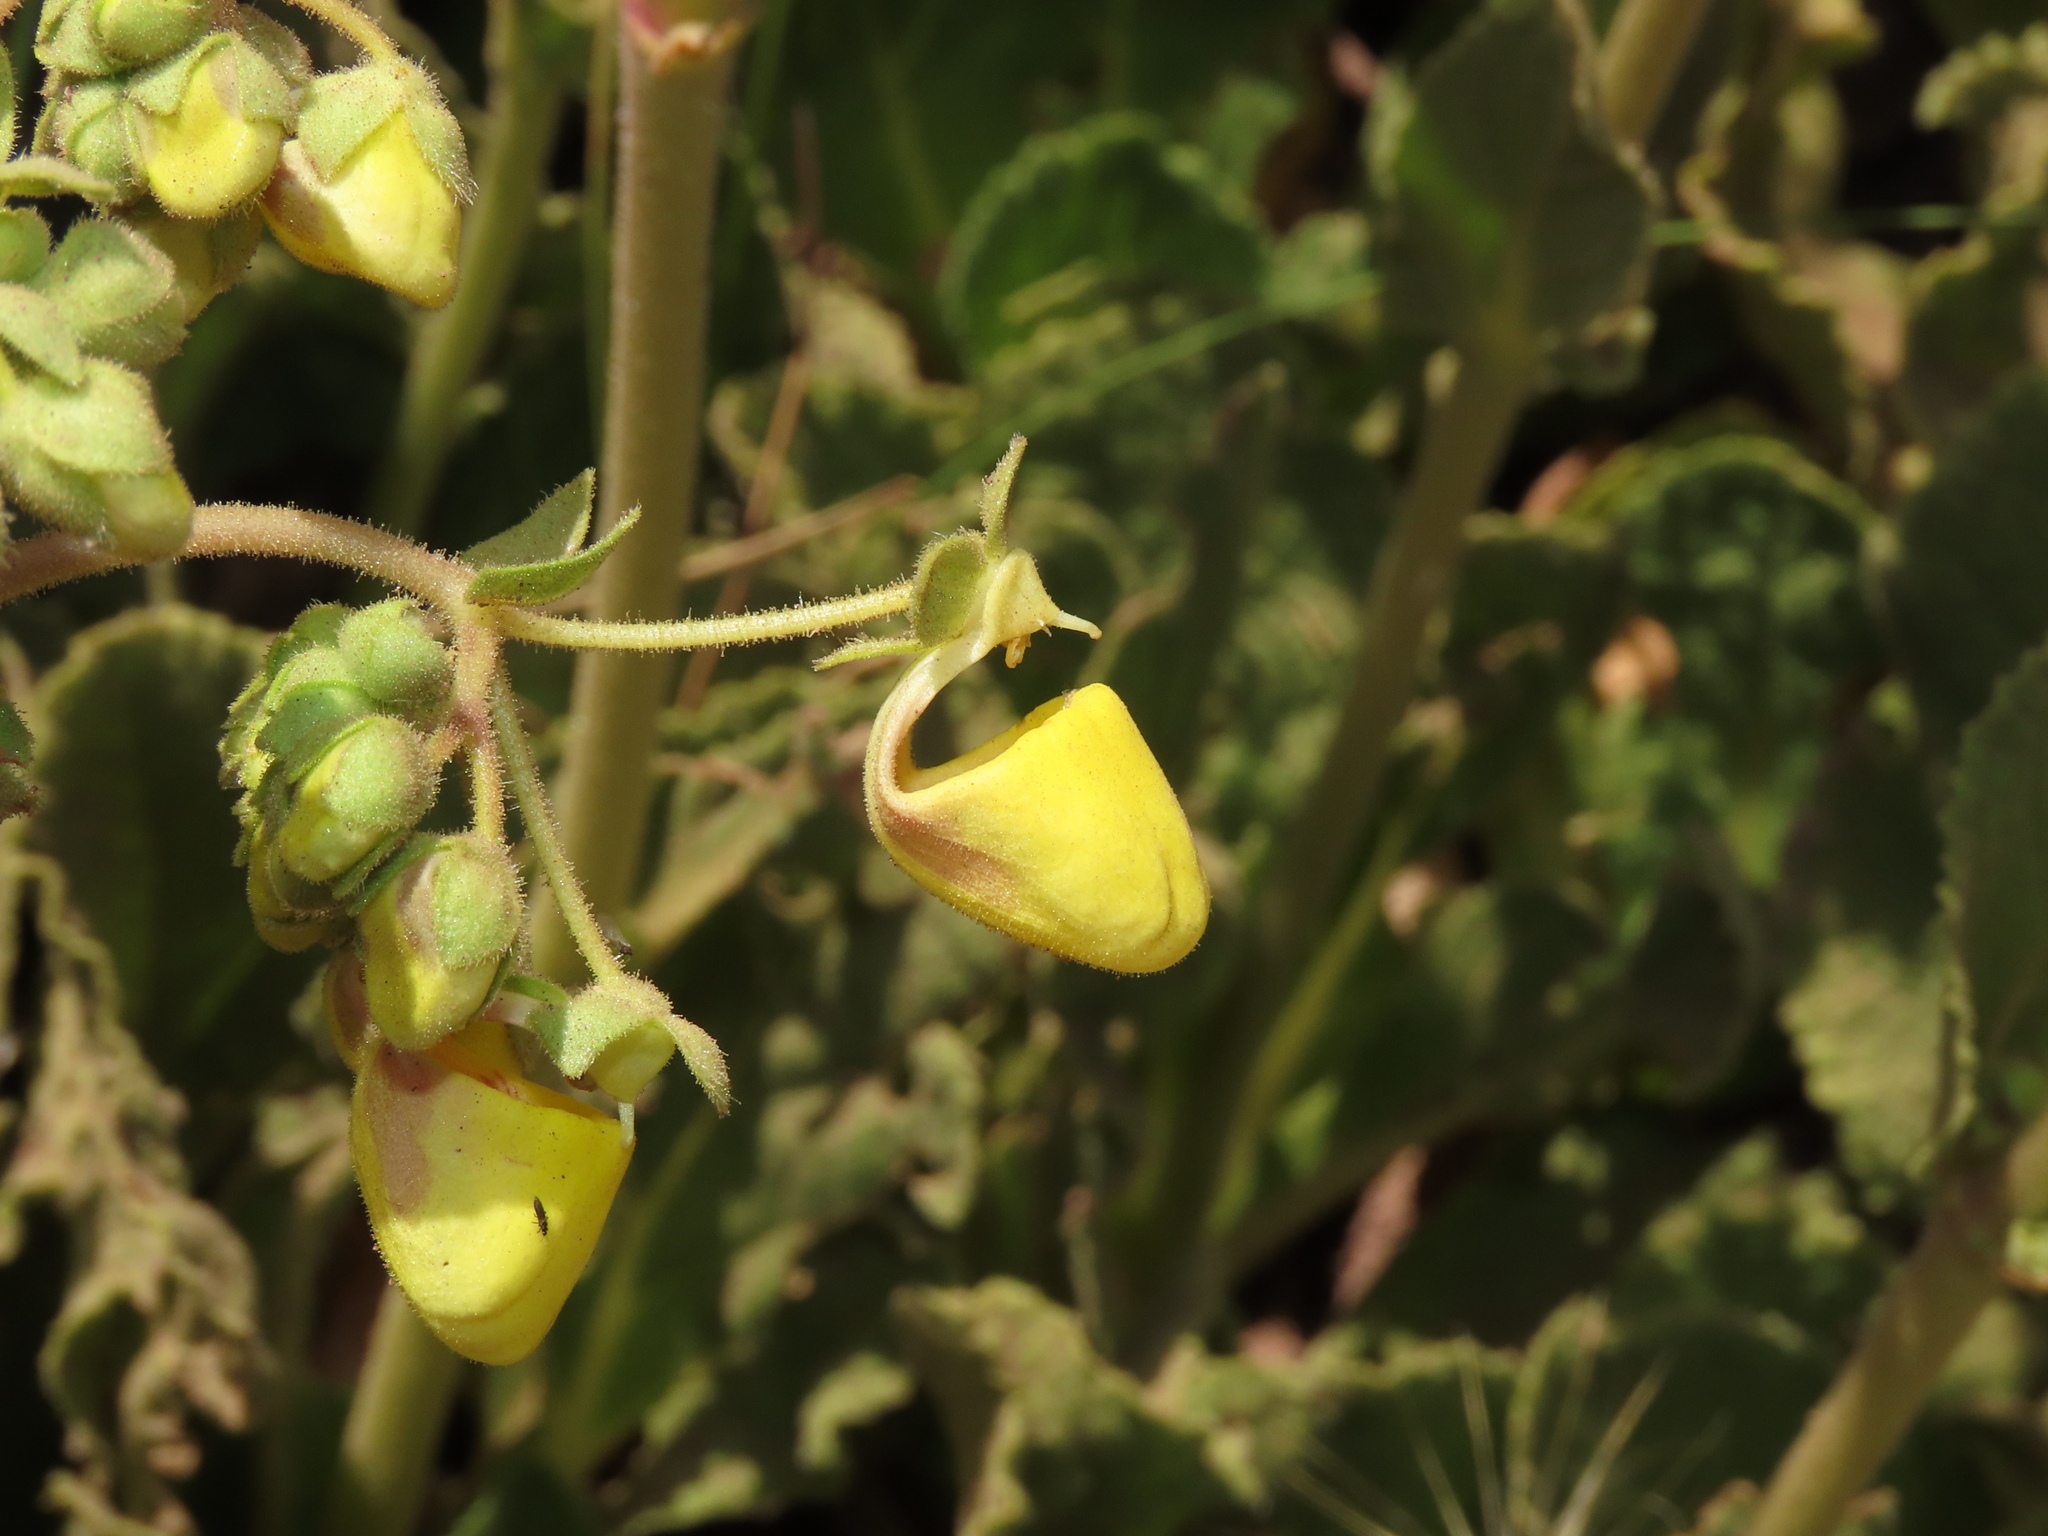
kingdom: Plantae
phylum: Tracheophyta
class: Magnoliopsida
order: Lamiales
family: Calceolariaceae
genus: Calceolaria
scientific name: Calceolaria paralia
